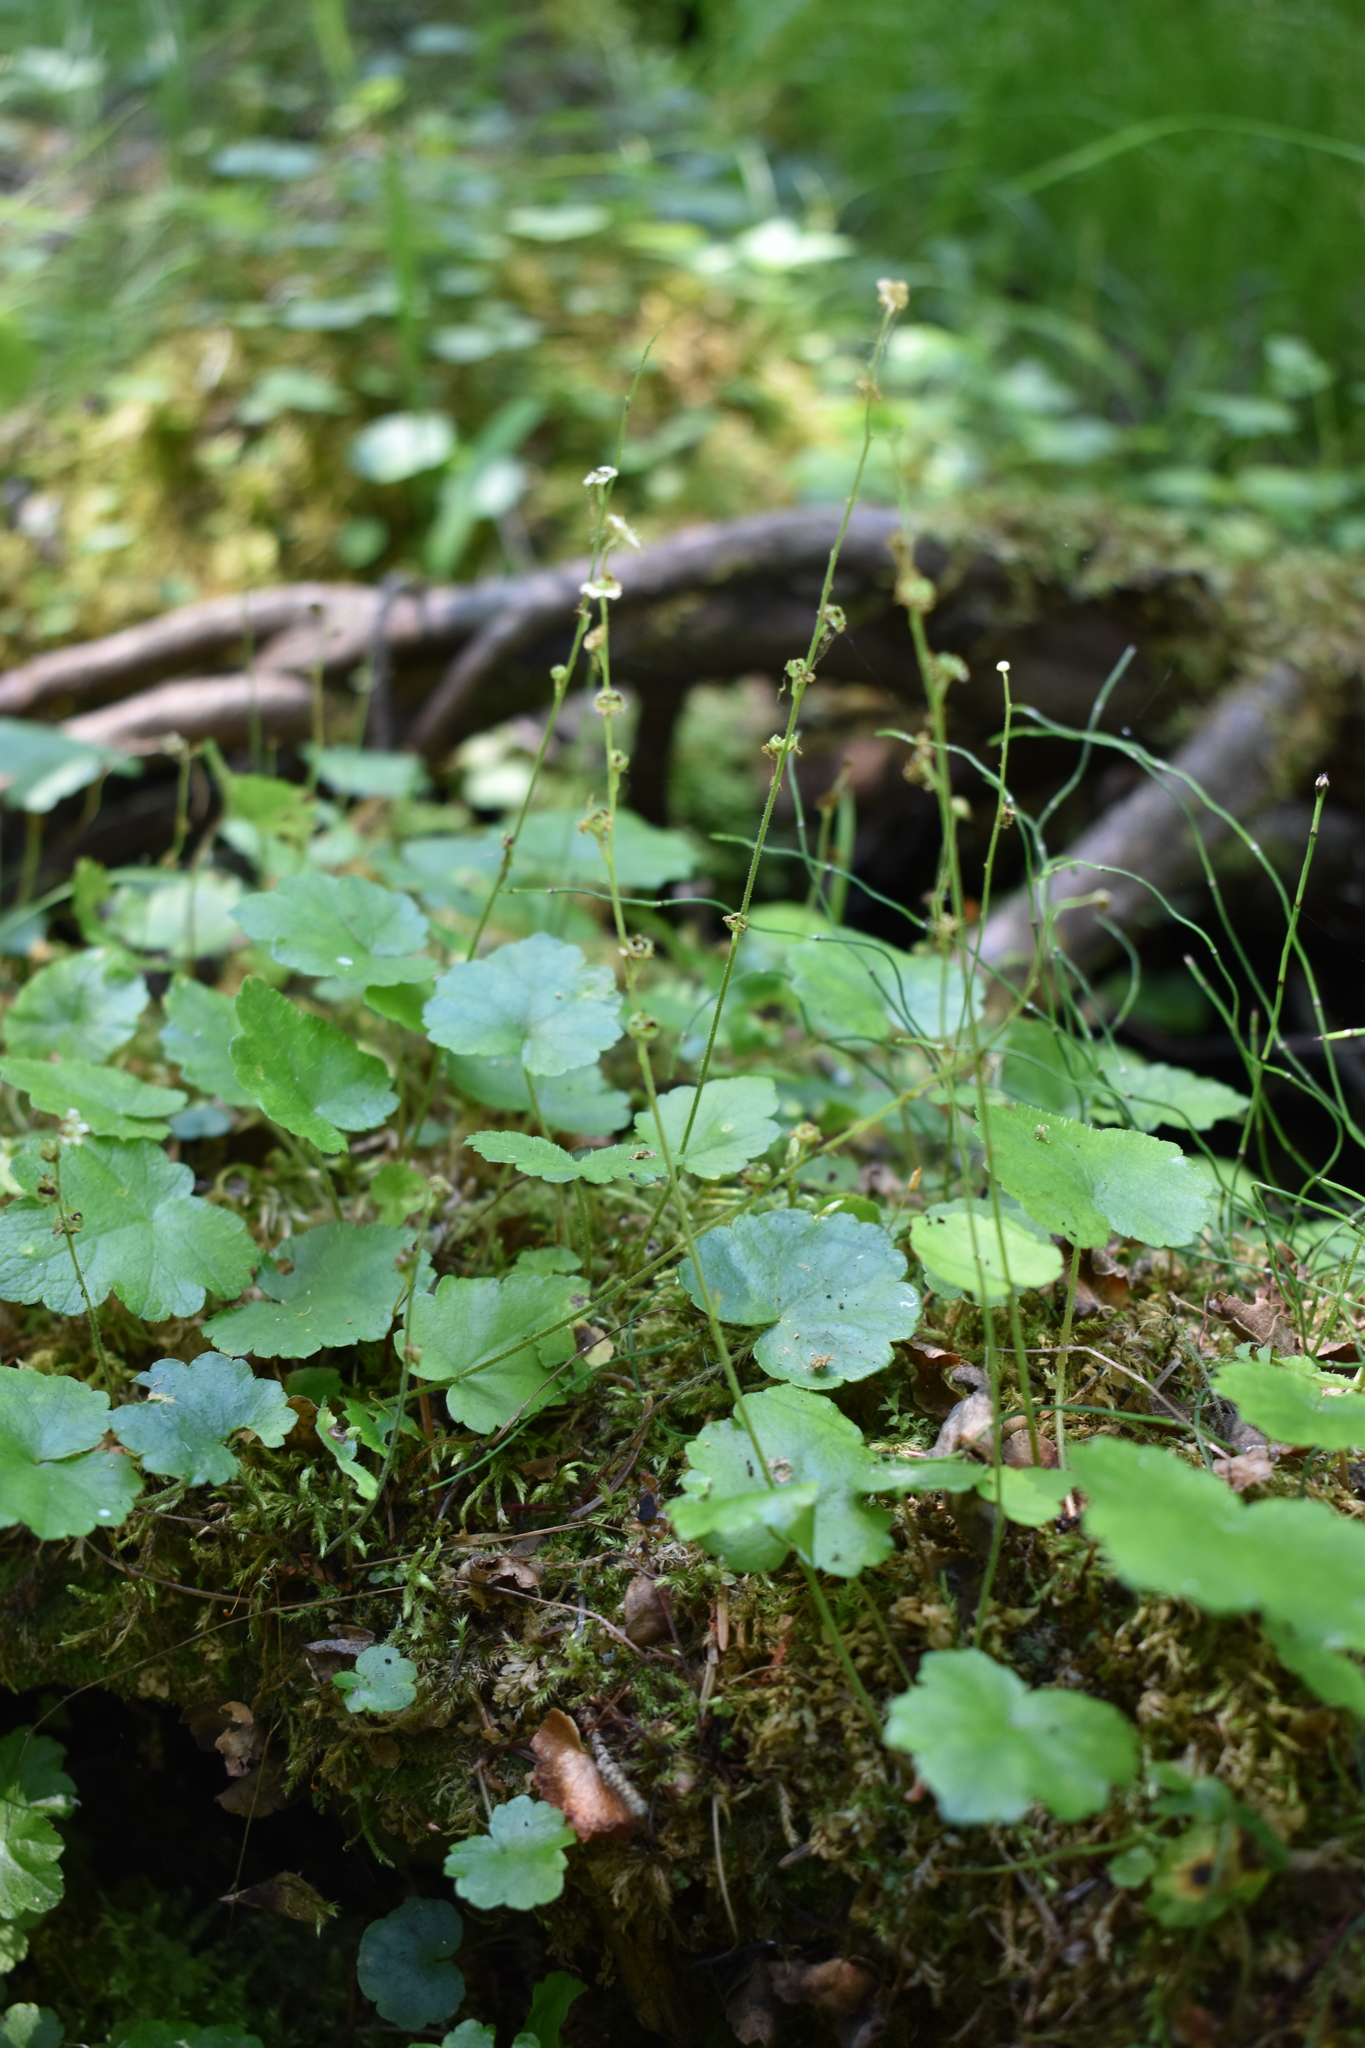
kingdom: Plantae
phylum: Tracheophyta
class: Magnoliopsida
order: Saxifragales
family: Saxifragaceae
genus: Mitella
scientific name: Mitella nuda
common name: Bare-stemmed bishop's-cap
